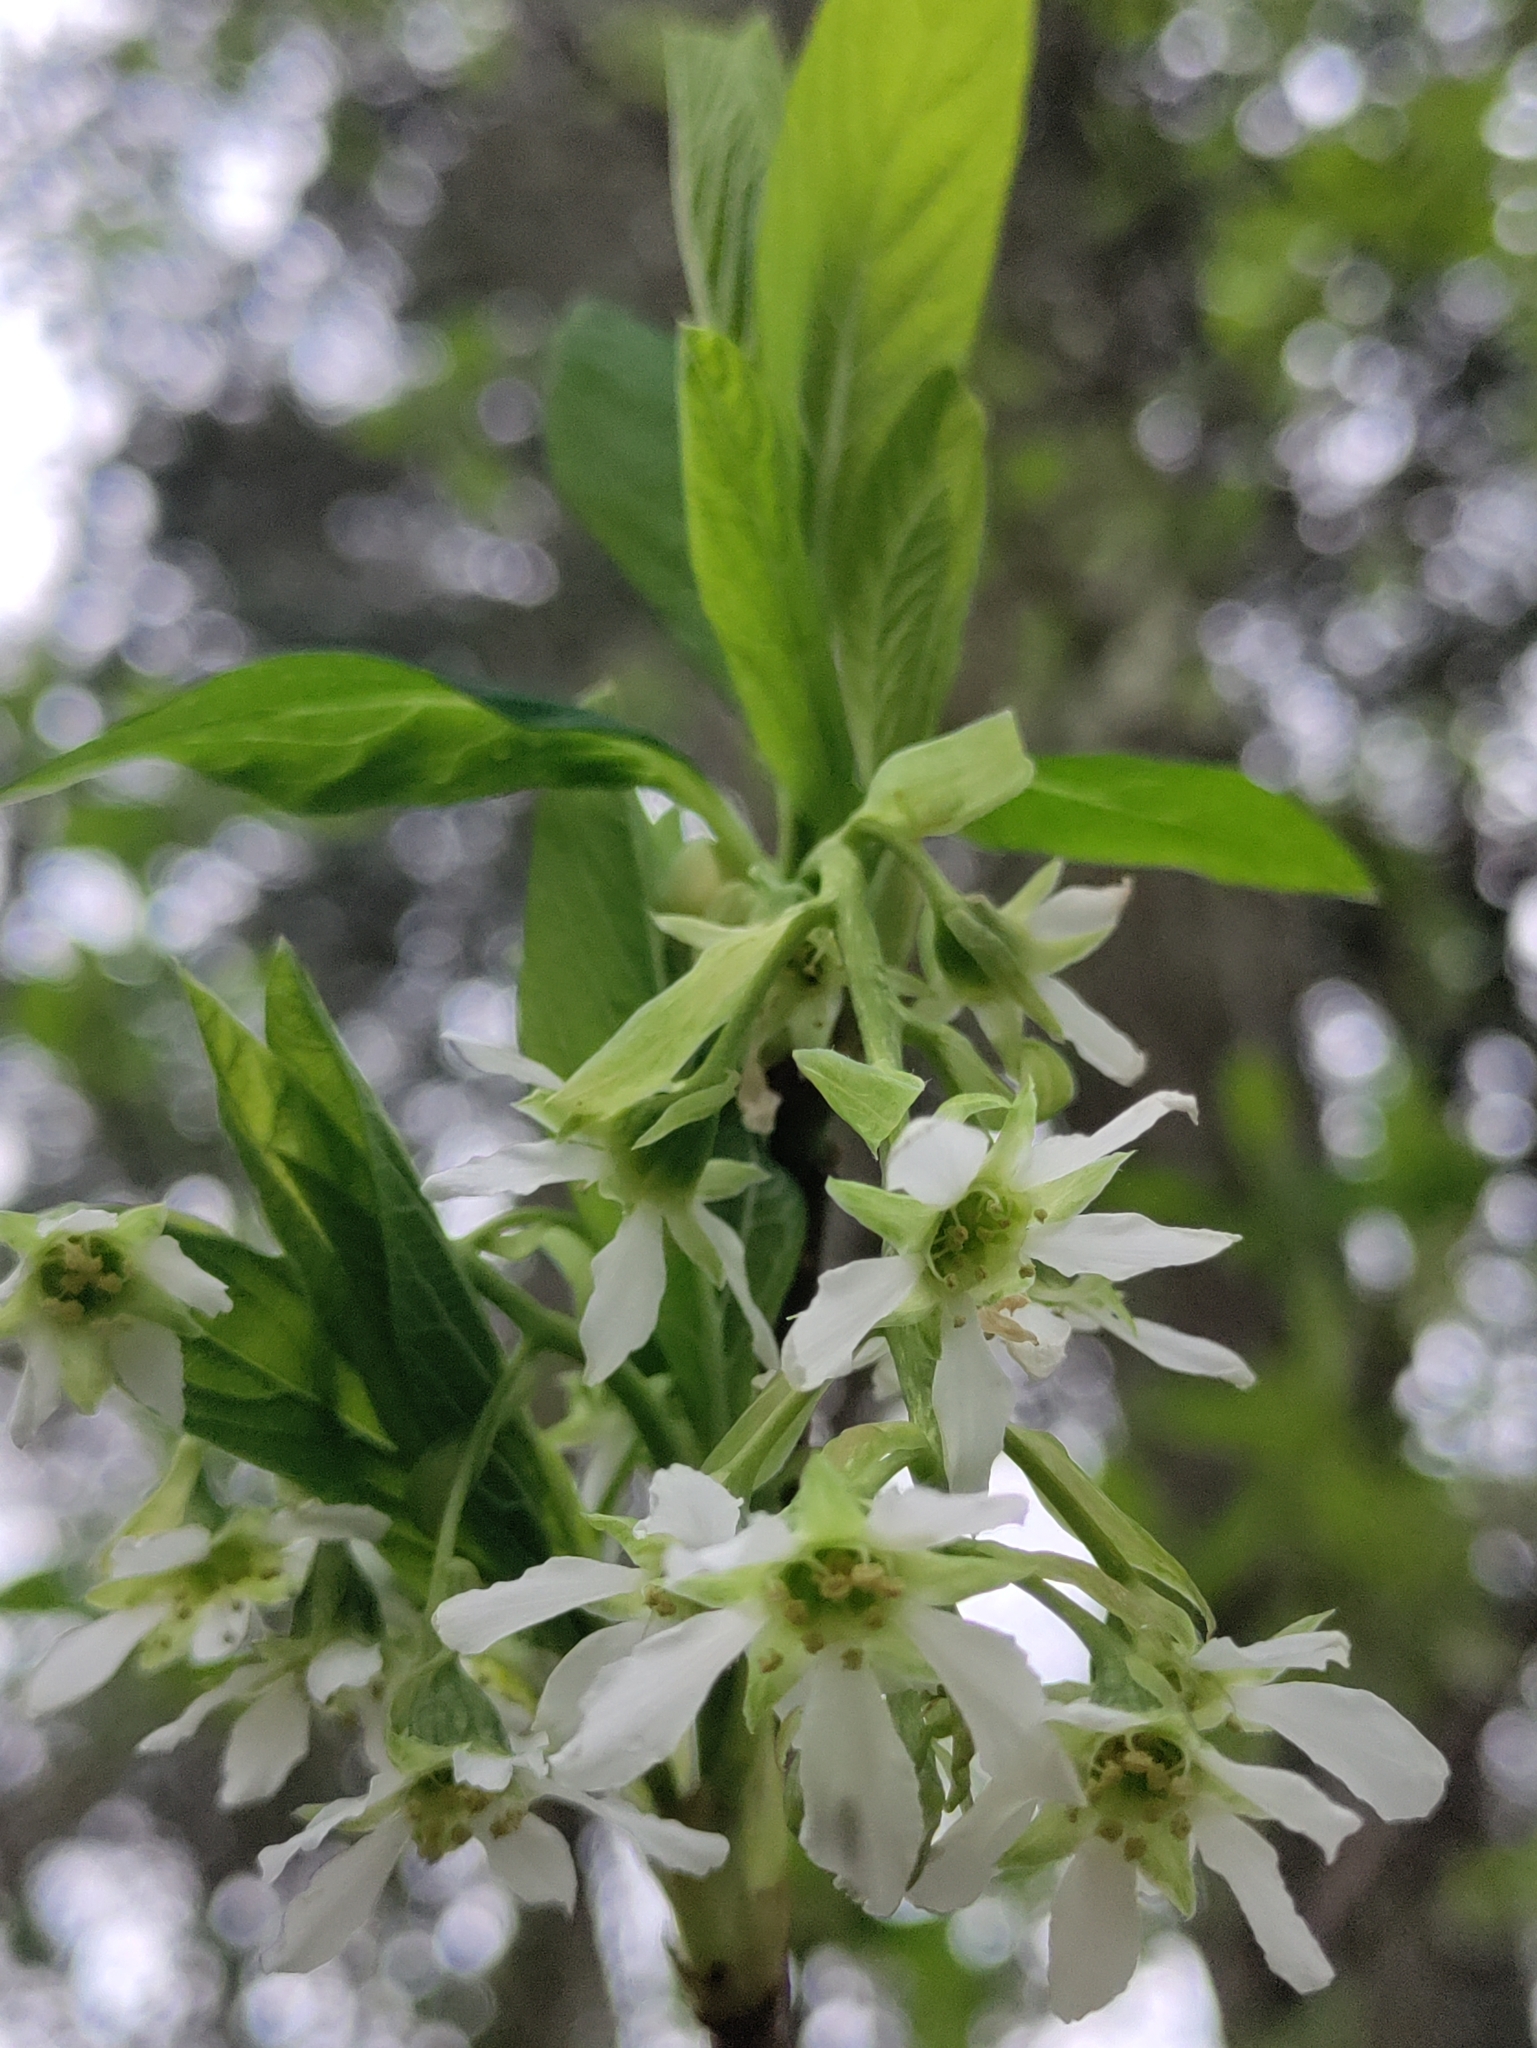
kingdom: Plantae
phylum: Tracheophyta
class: Magnoliopsida
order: Rosales
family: Rosaceae
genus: Oemleria
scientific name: Oemleria cerasiformis
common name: Osoberry
